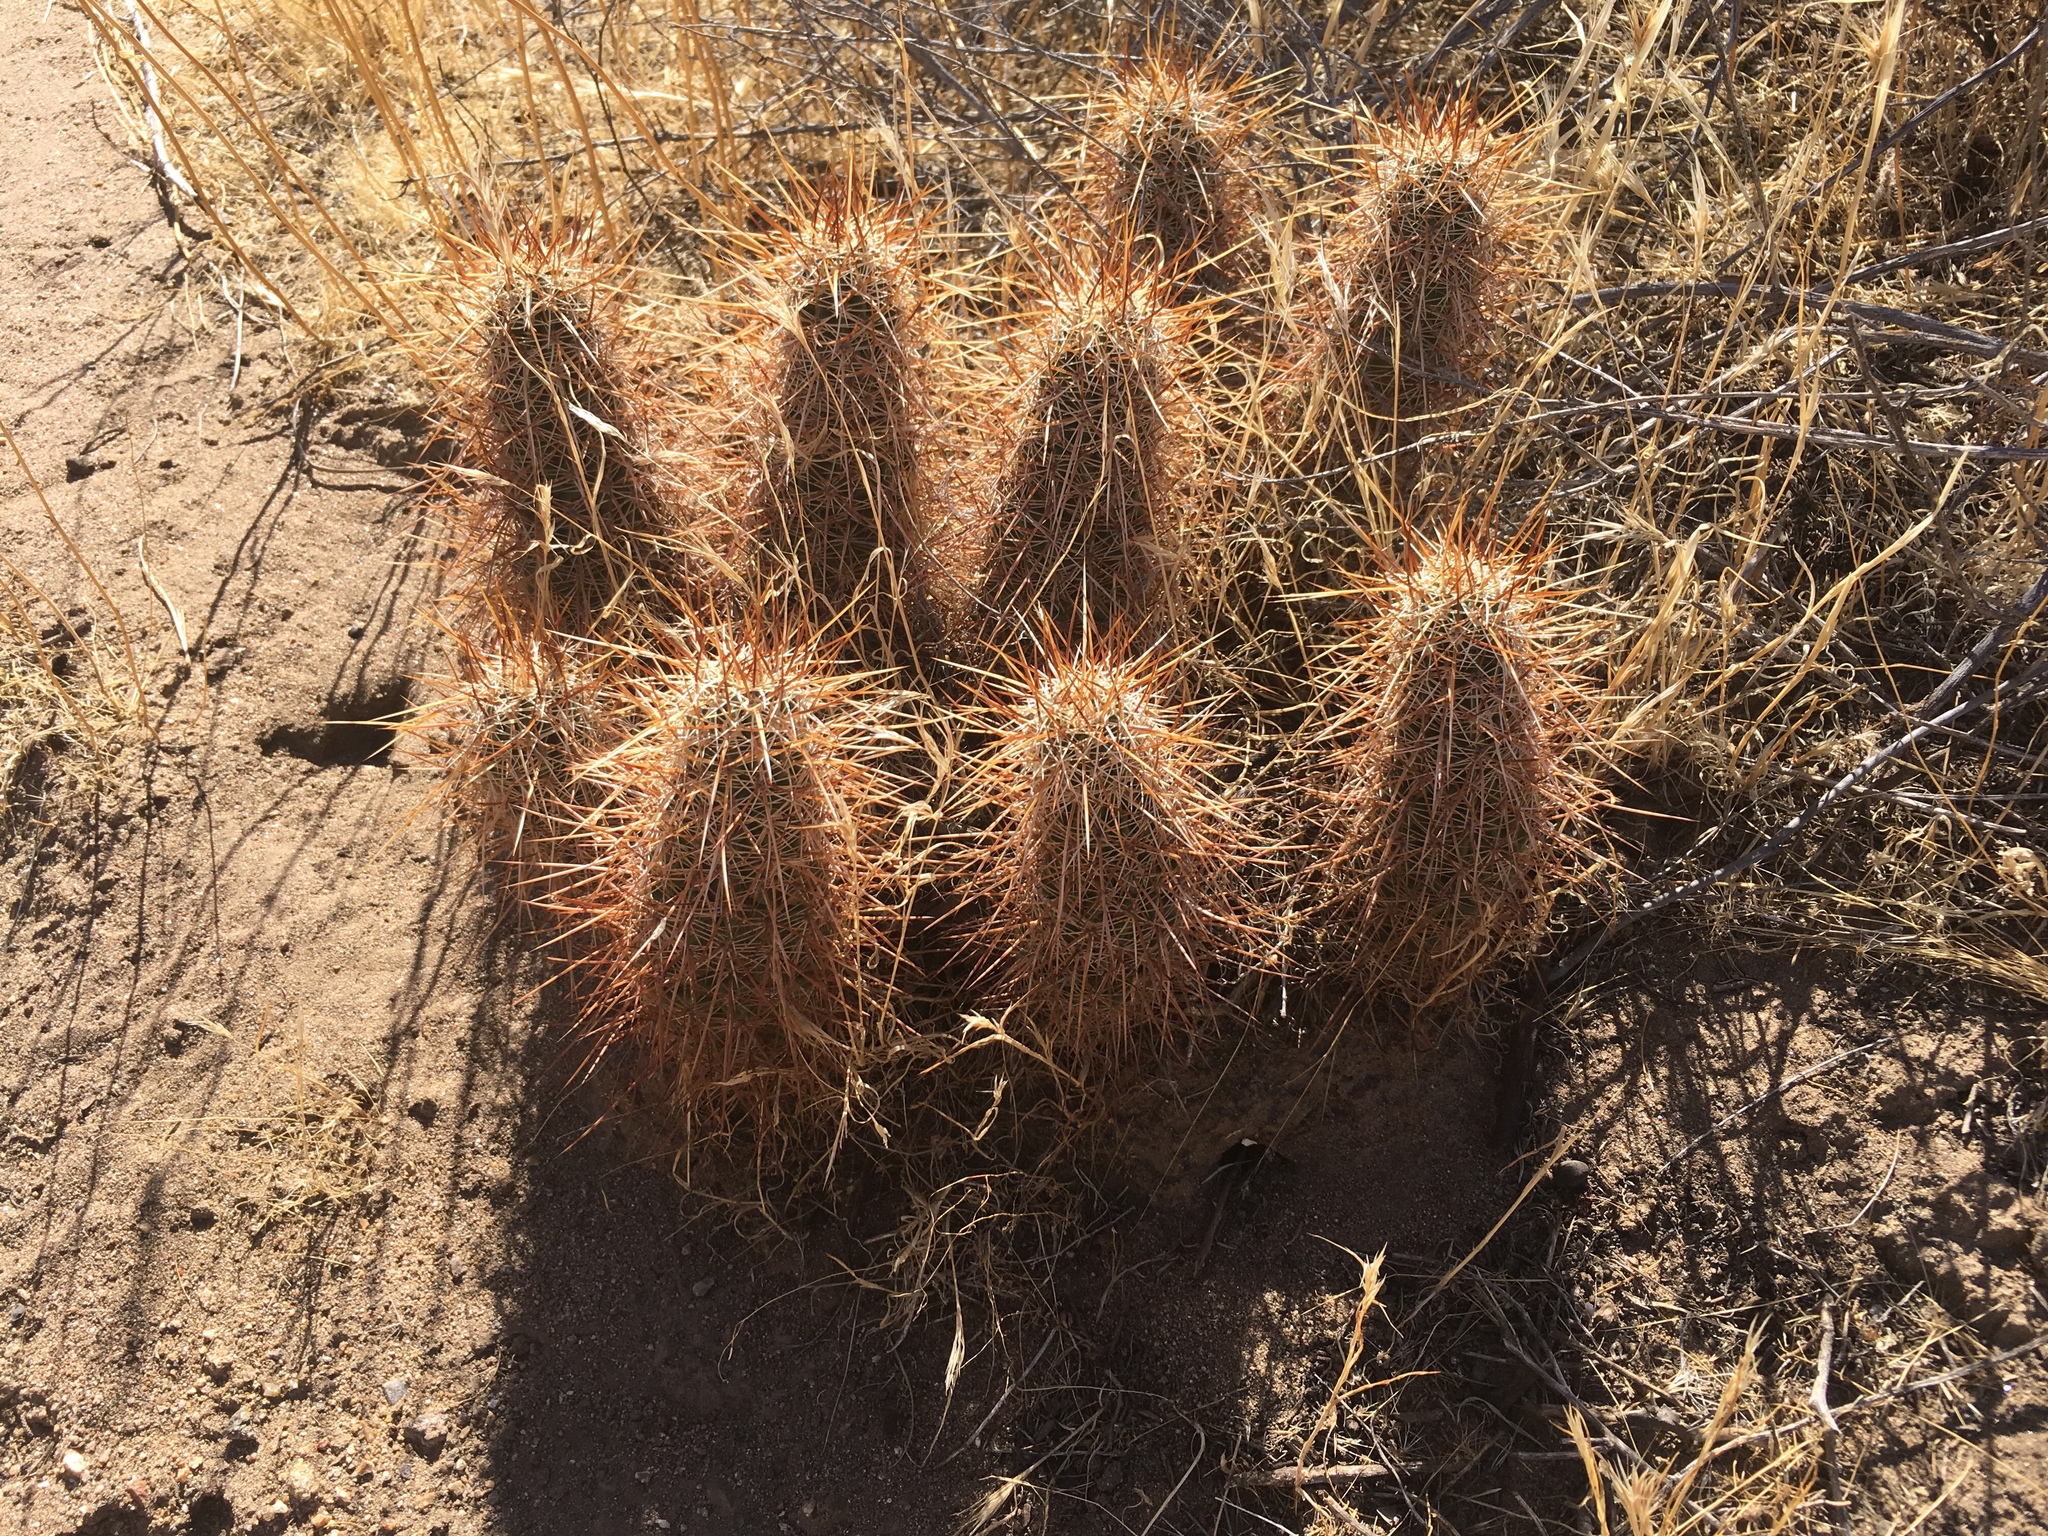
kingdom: Plantae
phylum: Tracheophyta
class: Magnoliopsida
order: Caryophyllales
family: Cactaceae
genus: Echinocereus
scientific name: Echinocereus engelmannii
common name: Engelmann's hedgehog cactus
